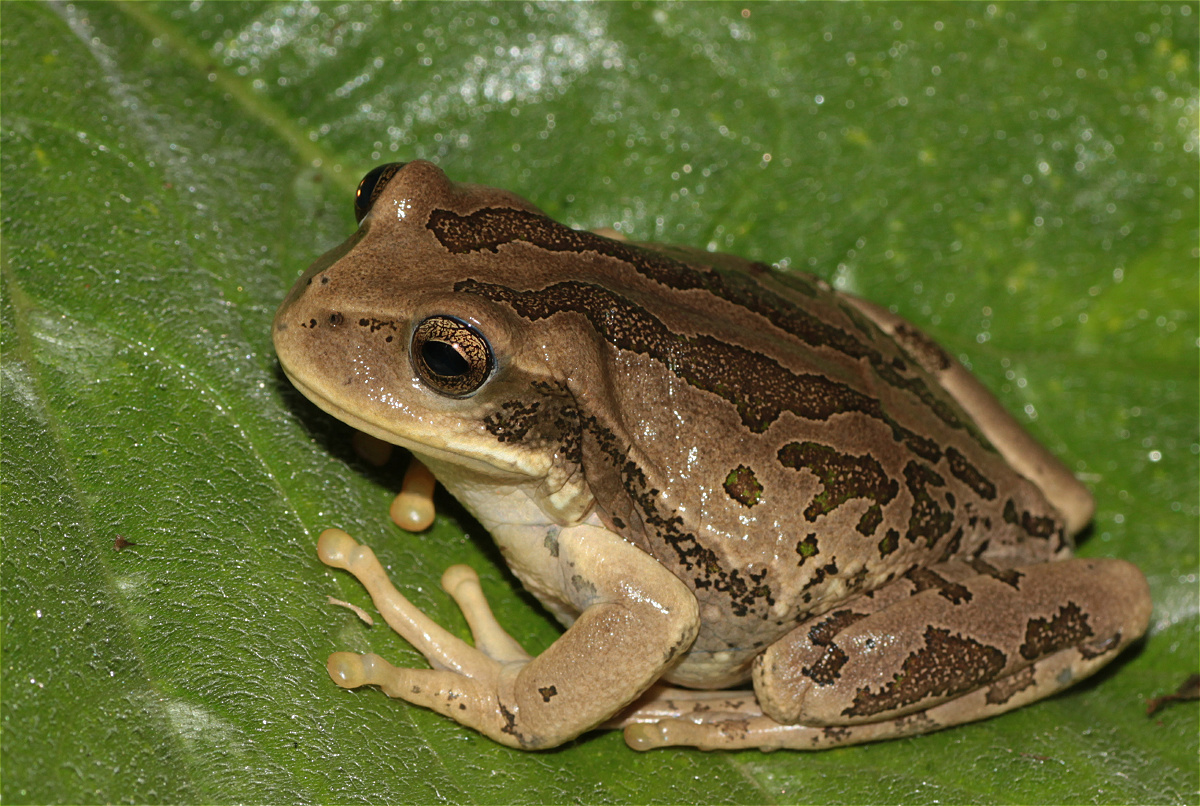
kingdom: Animalia
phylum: Chordata
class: Amphibia
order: Anura
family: Hemiphractidae
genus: Gastrotheca
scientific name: Gastrotheca cuencana
